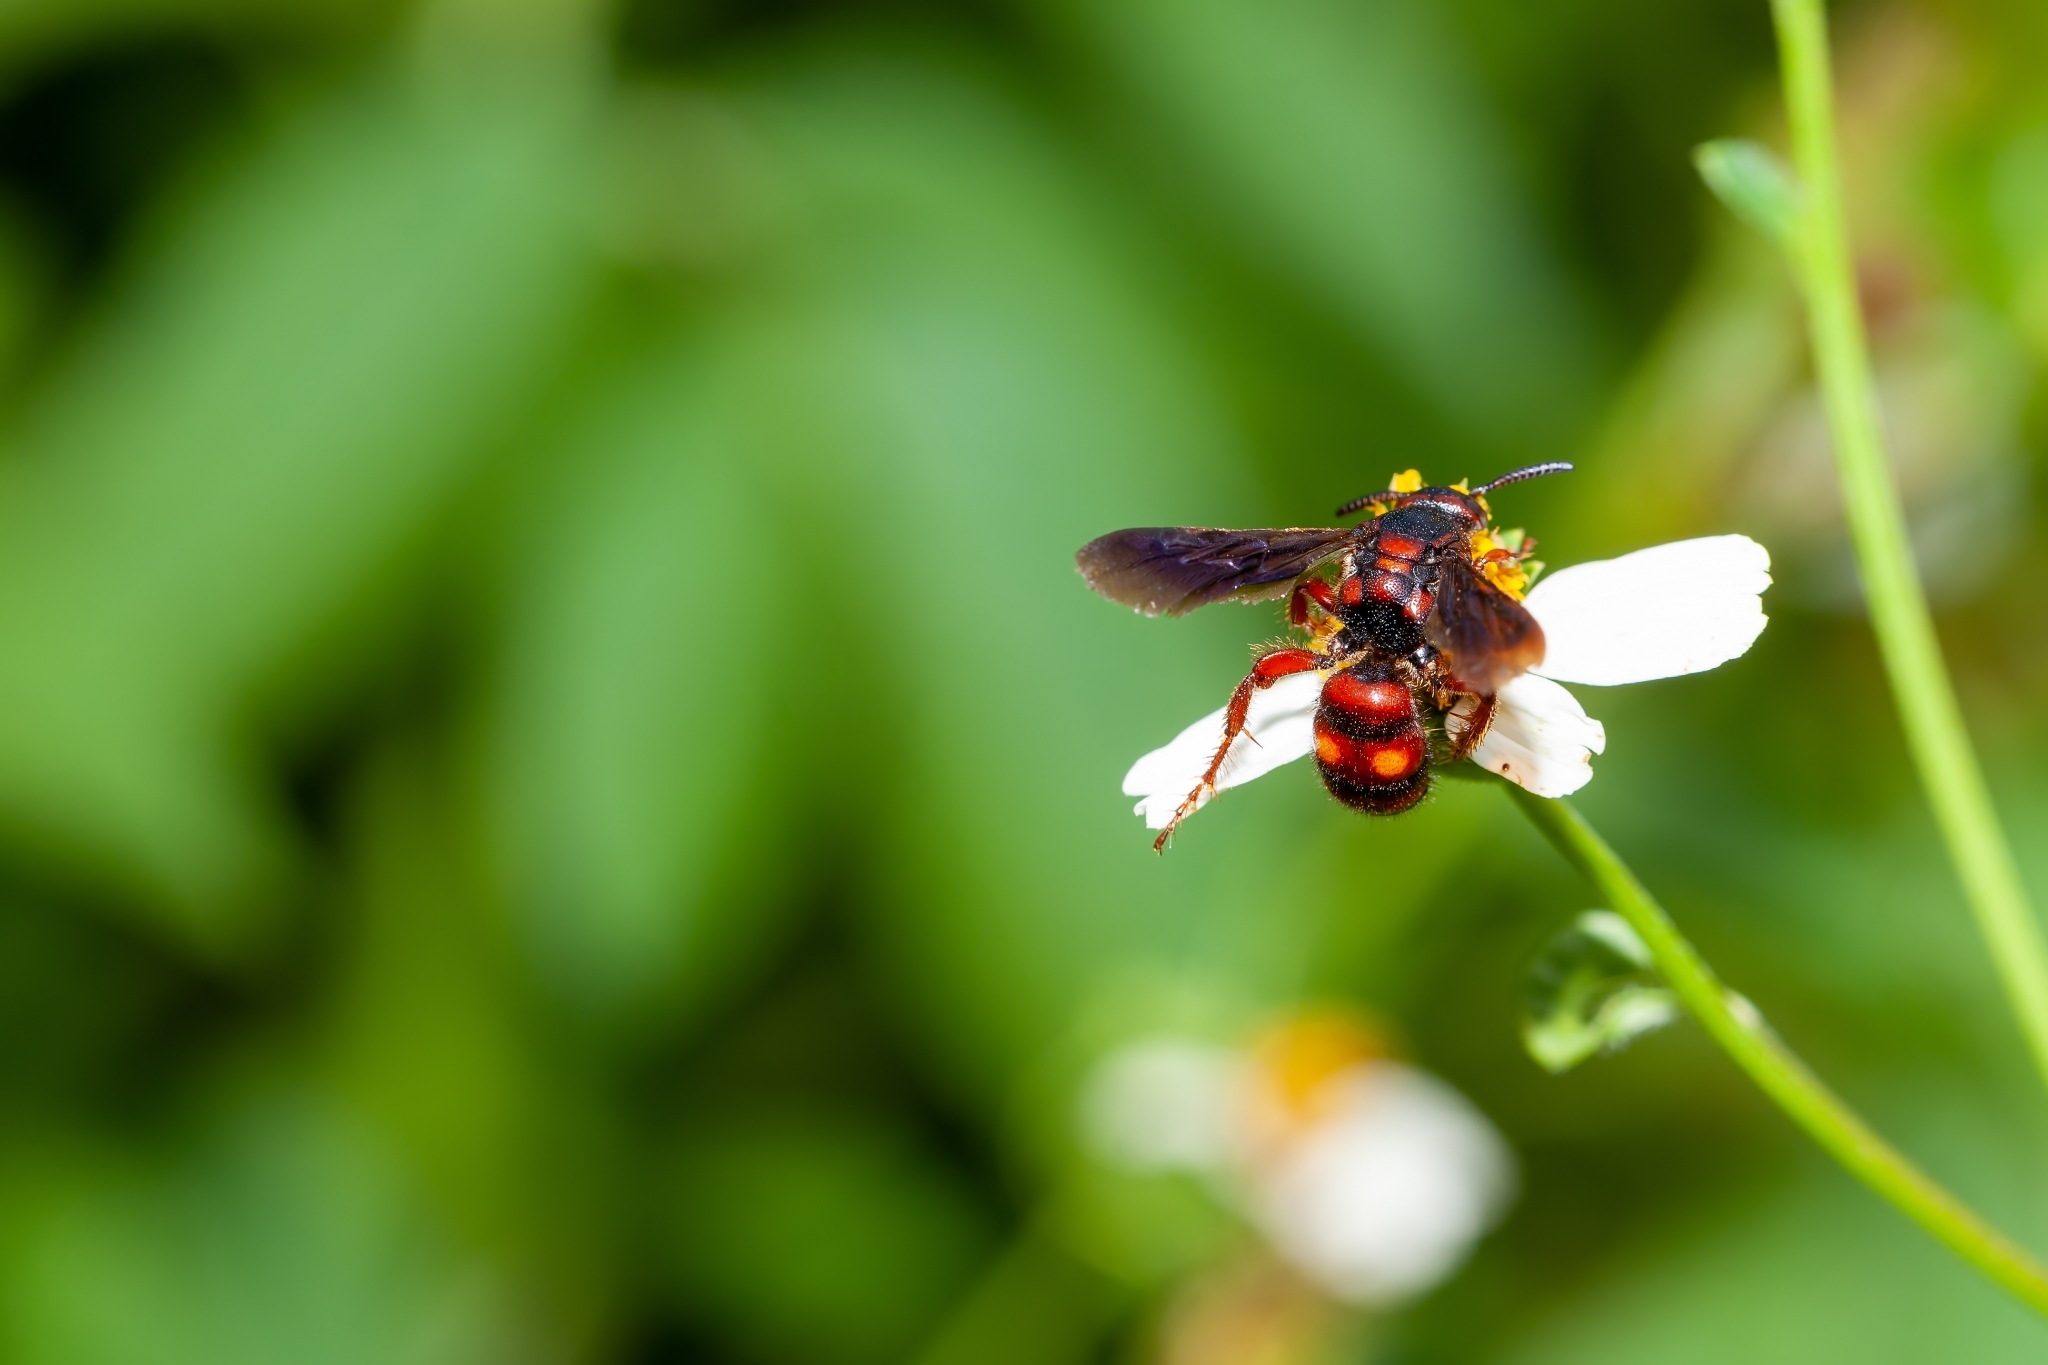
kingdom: Animalia
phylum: Arthropoda
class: Insecta
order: Hymenoptera
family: Scoliidae
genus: Scolia
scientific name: Scolia nobilitata
